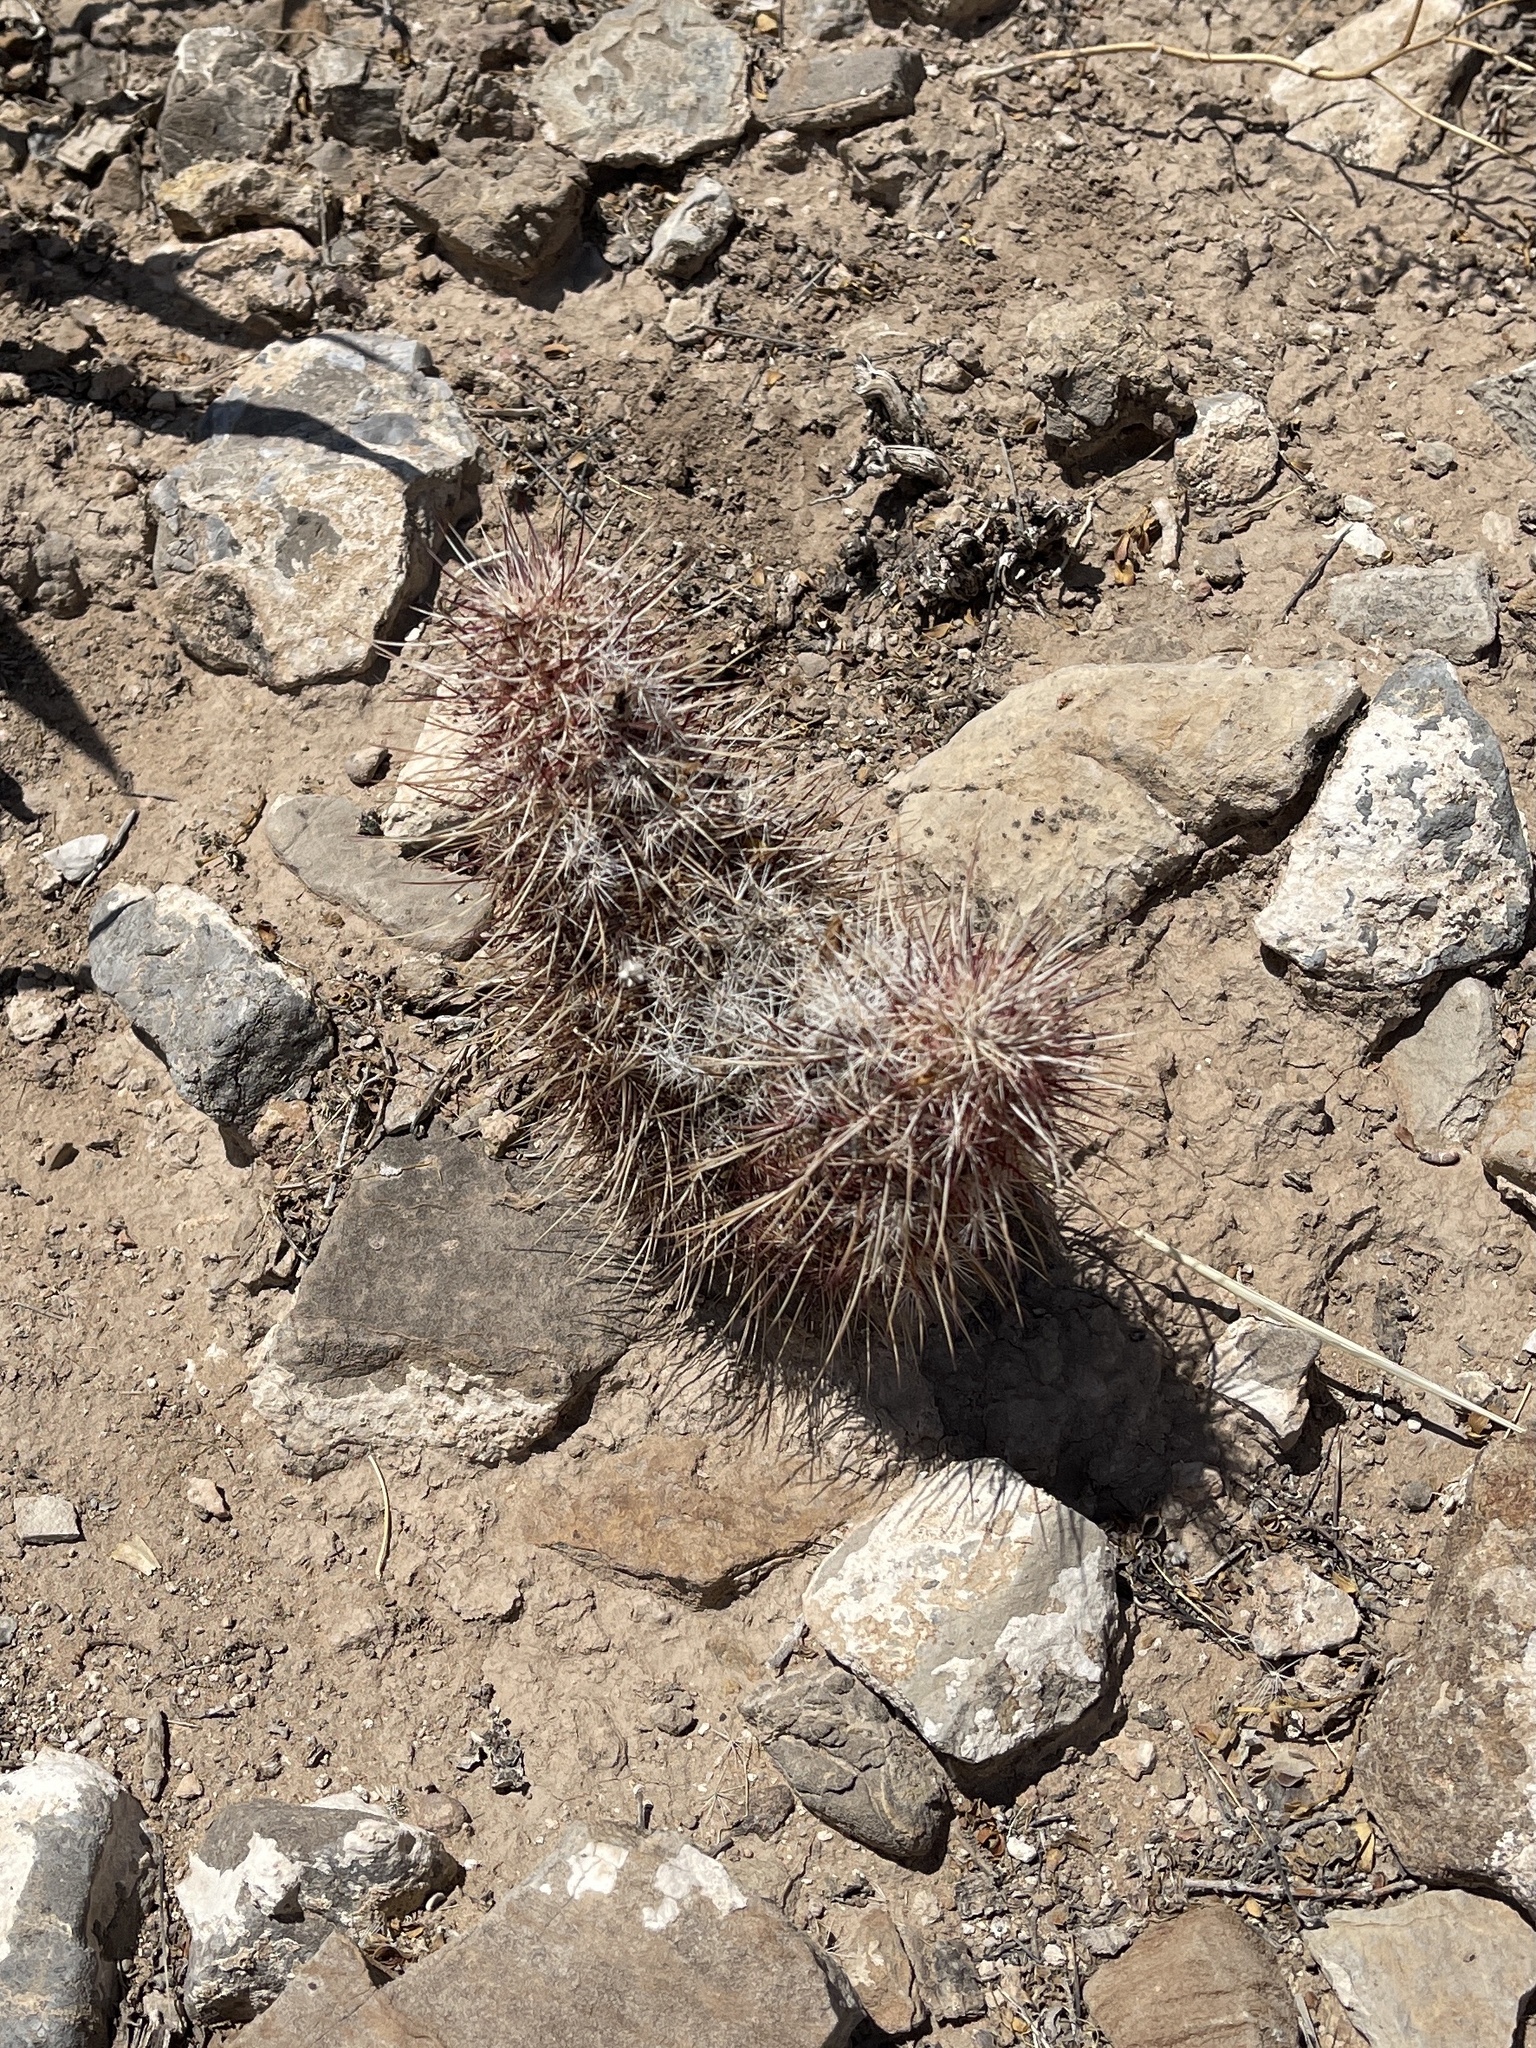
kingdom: Plantae
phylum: Tracheophyta
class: Magnoliopsida
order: Caryophyllales
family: Cactaceae
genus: Echinocereus
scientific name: Echinocereus viridiflorus
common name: Nylon hedgehog cactus
